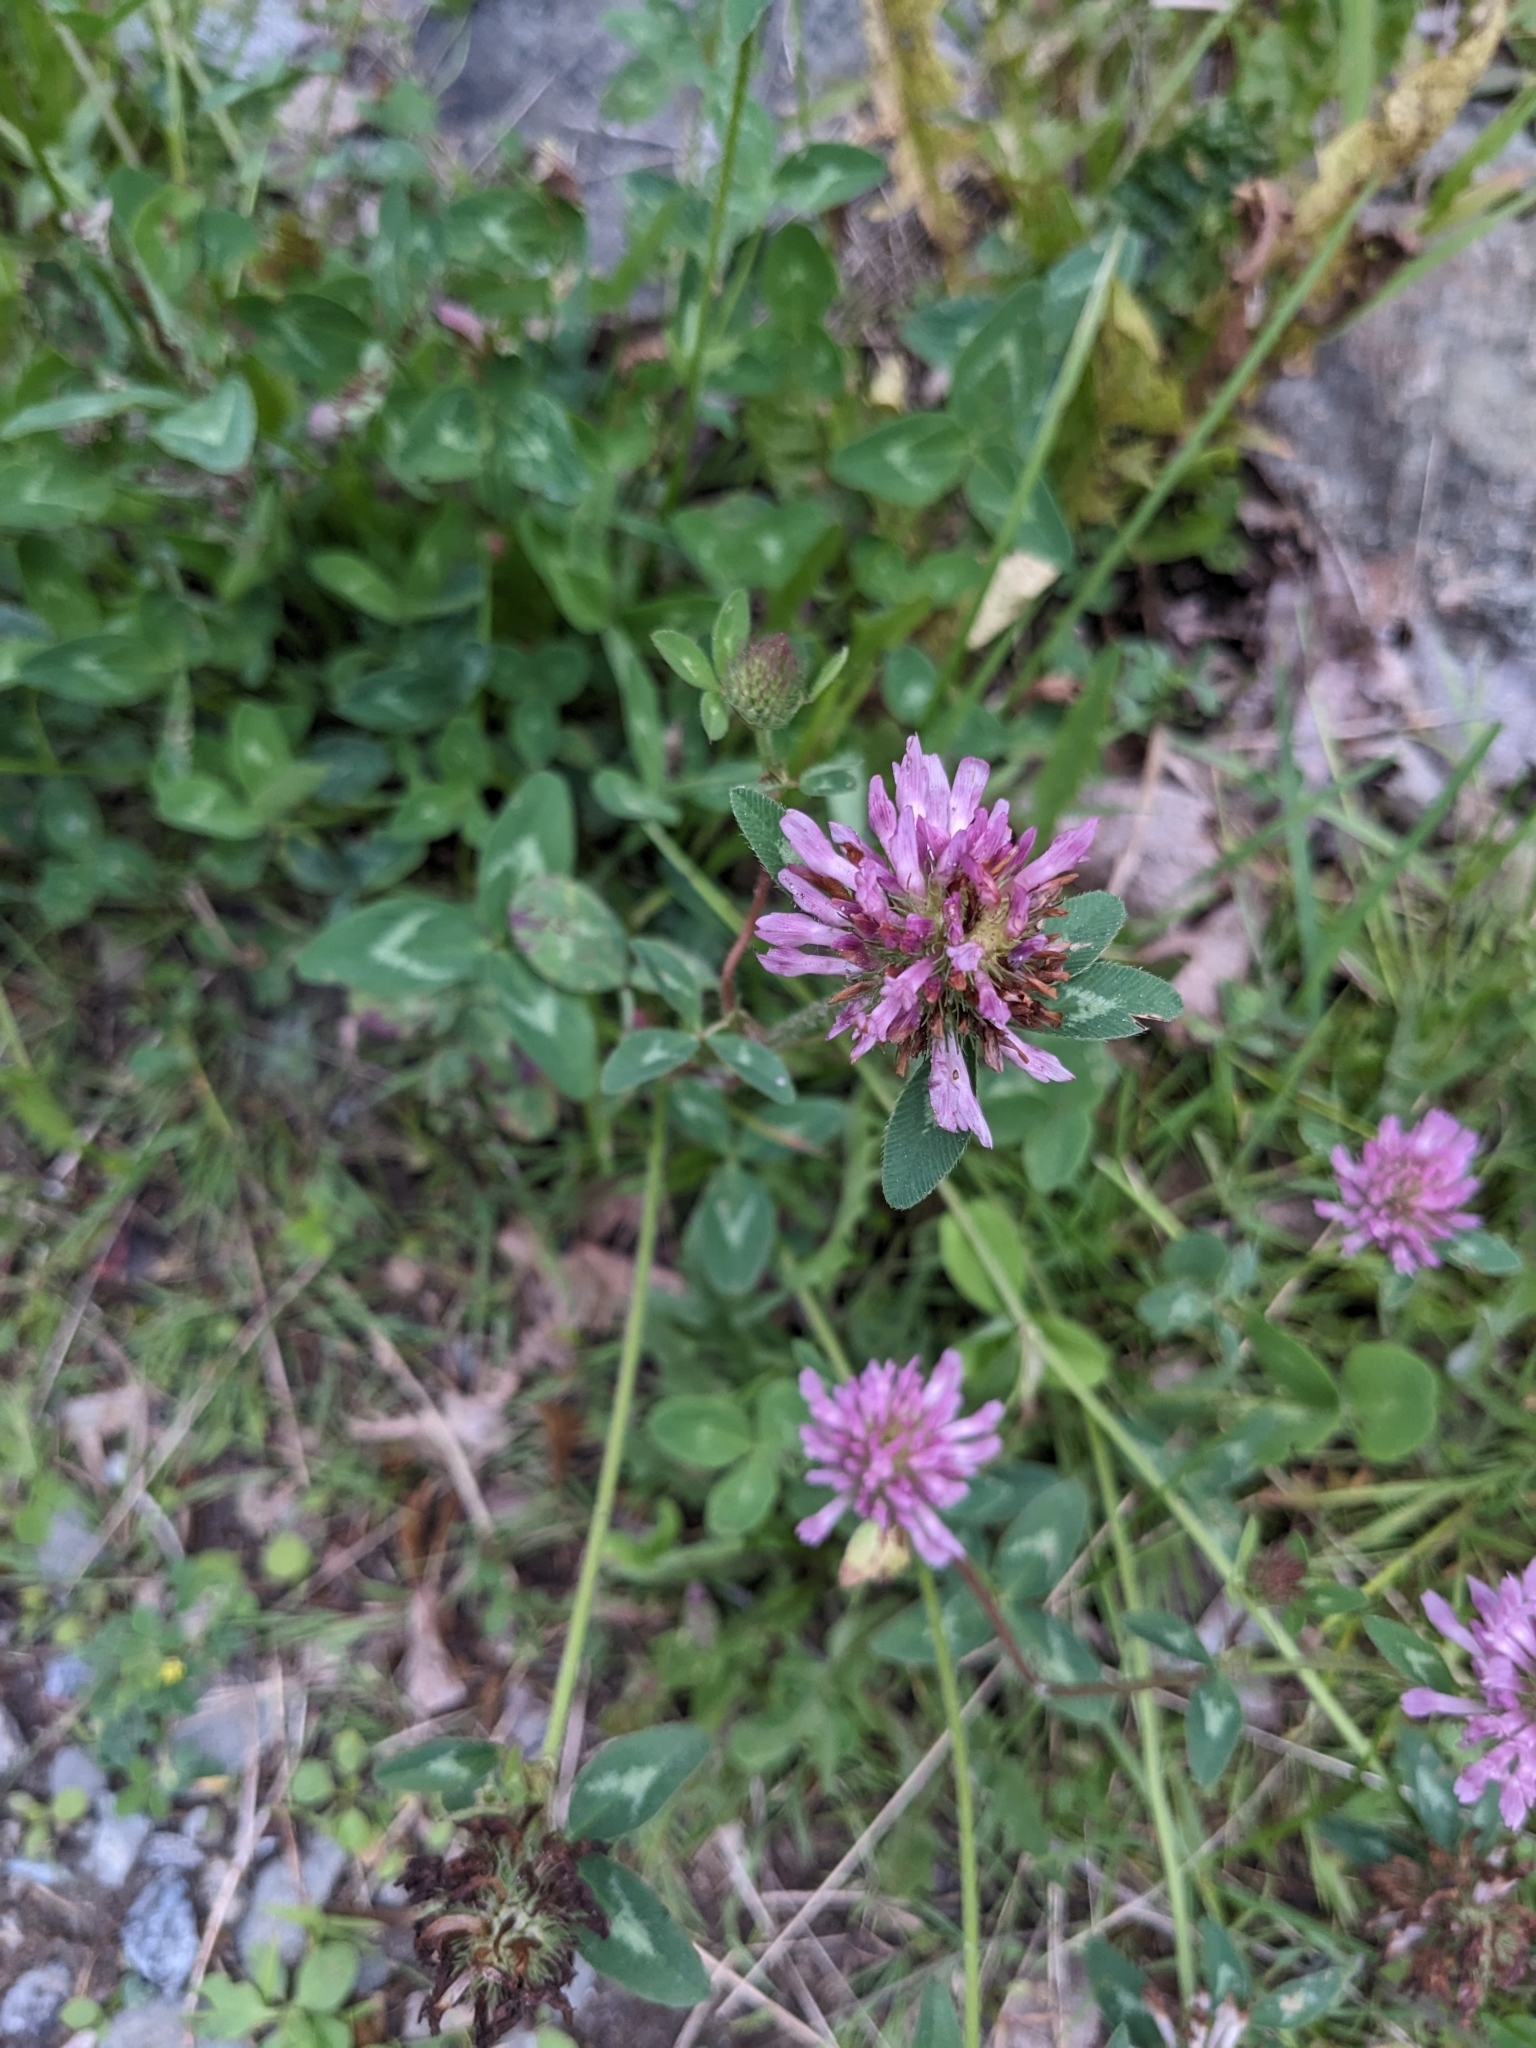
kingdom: Plantae
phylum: Tracheophyta
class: Magnoliopsida
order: Fabales
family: Fabaceae
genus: Trifolium
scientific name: Trifolium pratense
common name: Red clover
